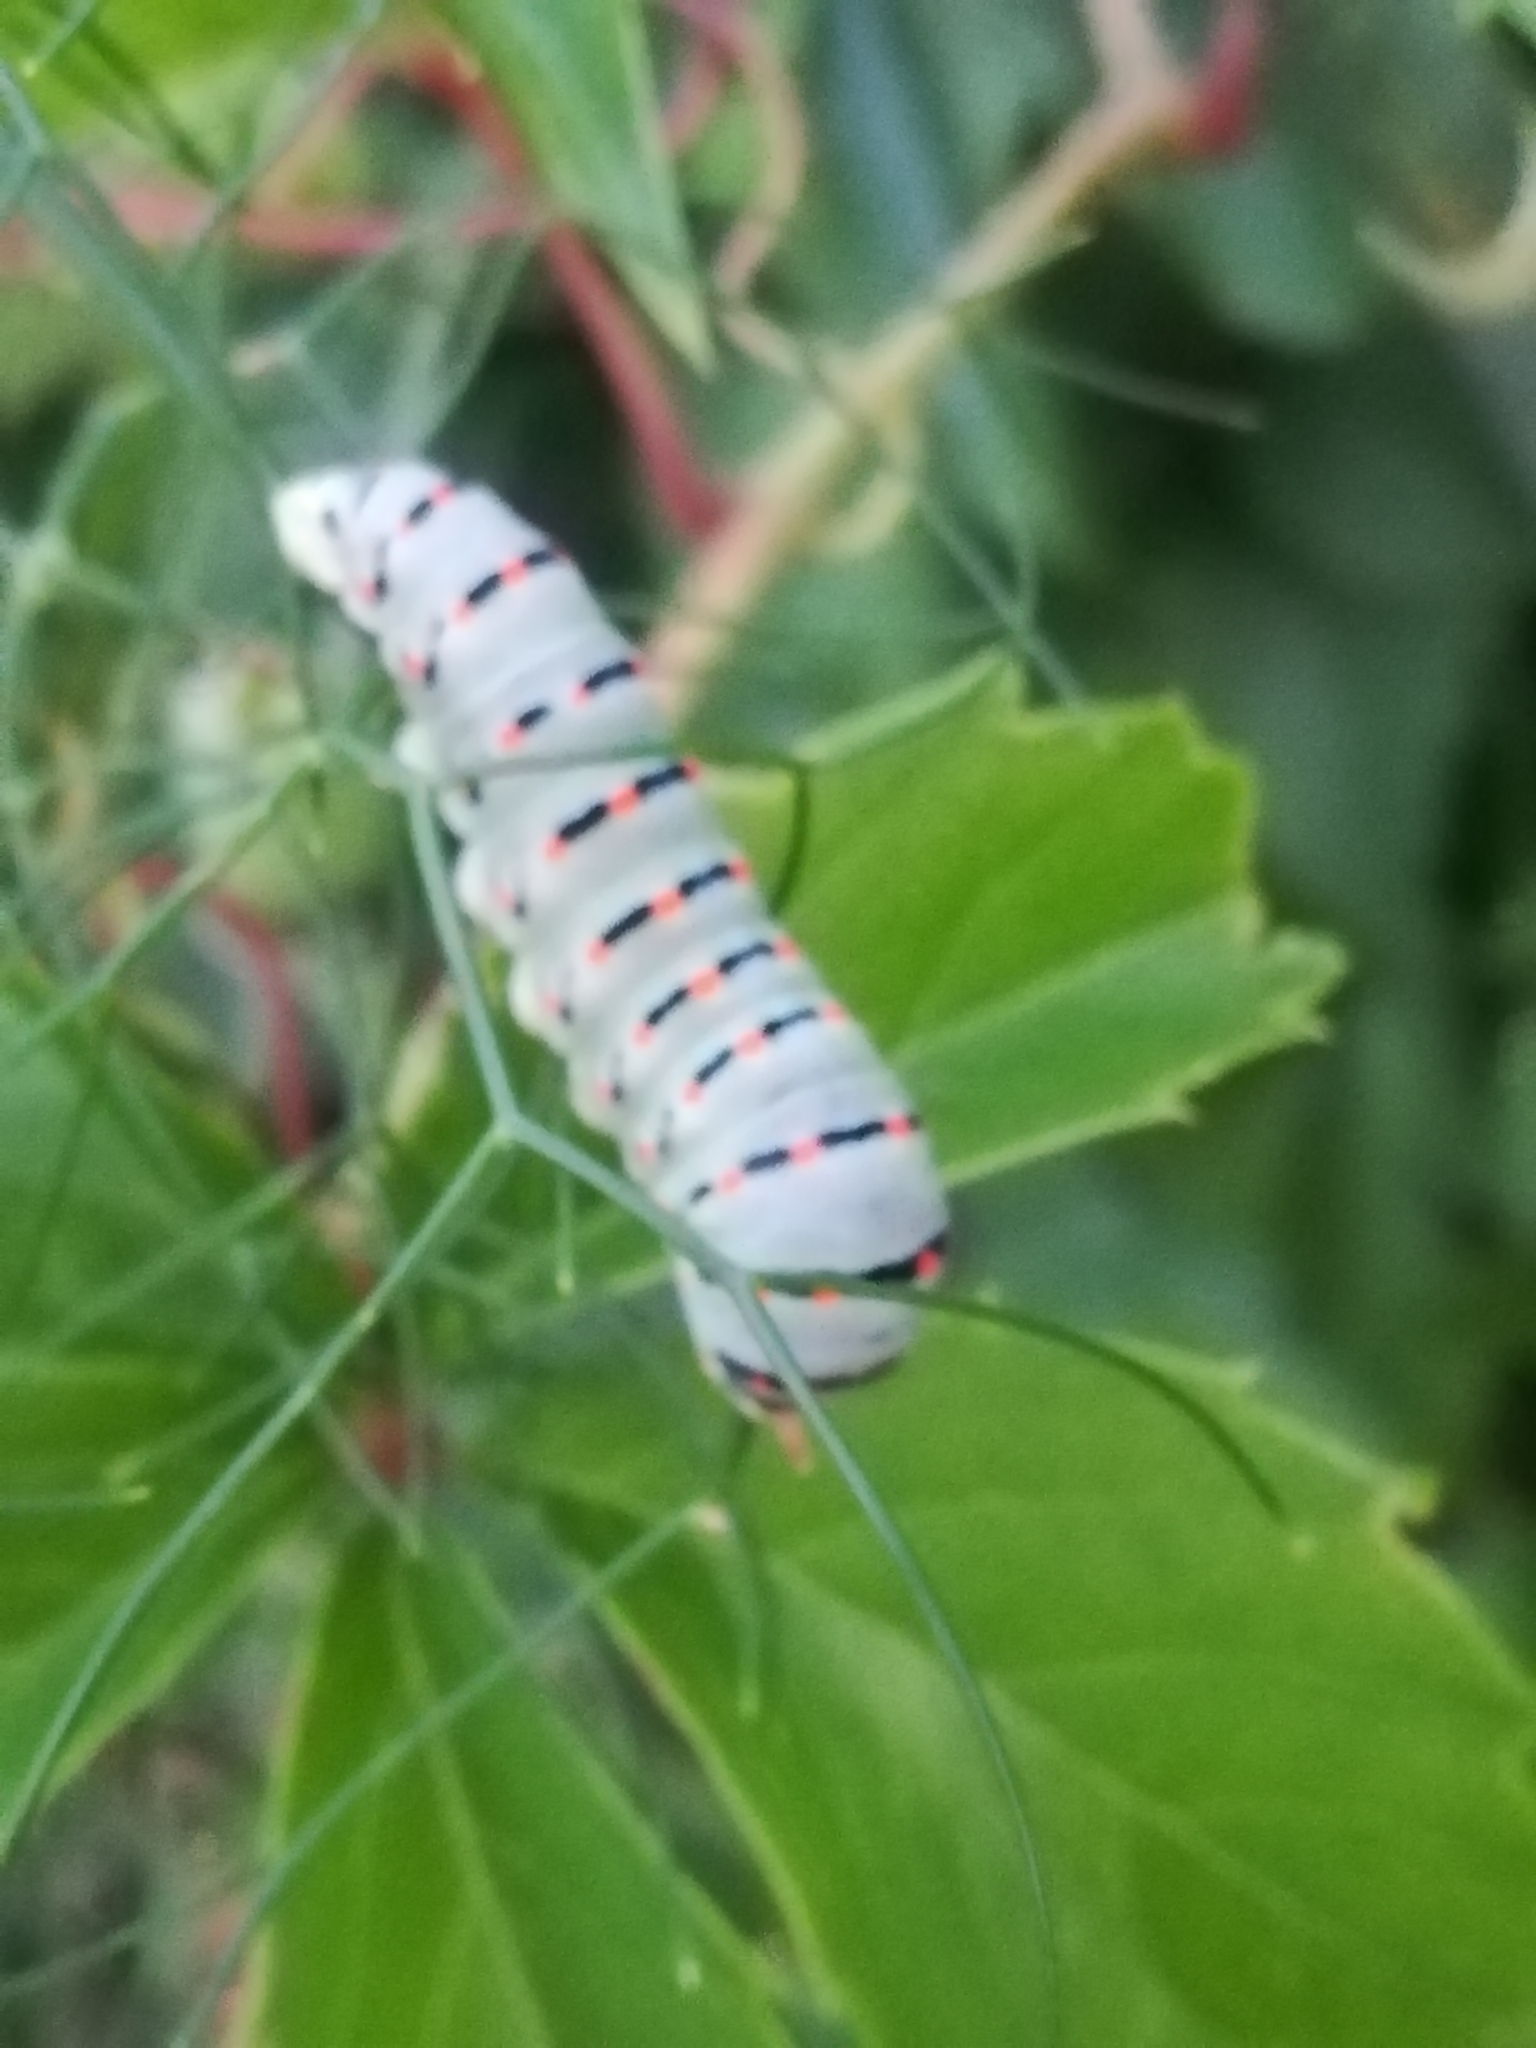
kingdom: Animalia
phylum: Arthropoda
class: Insecta
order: Lepidoptera
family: Papilionidae
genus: Papilio
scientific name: Papilio machaon
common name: Swallowtail
